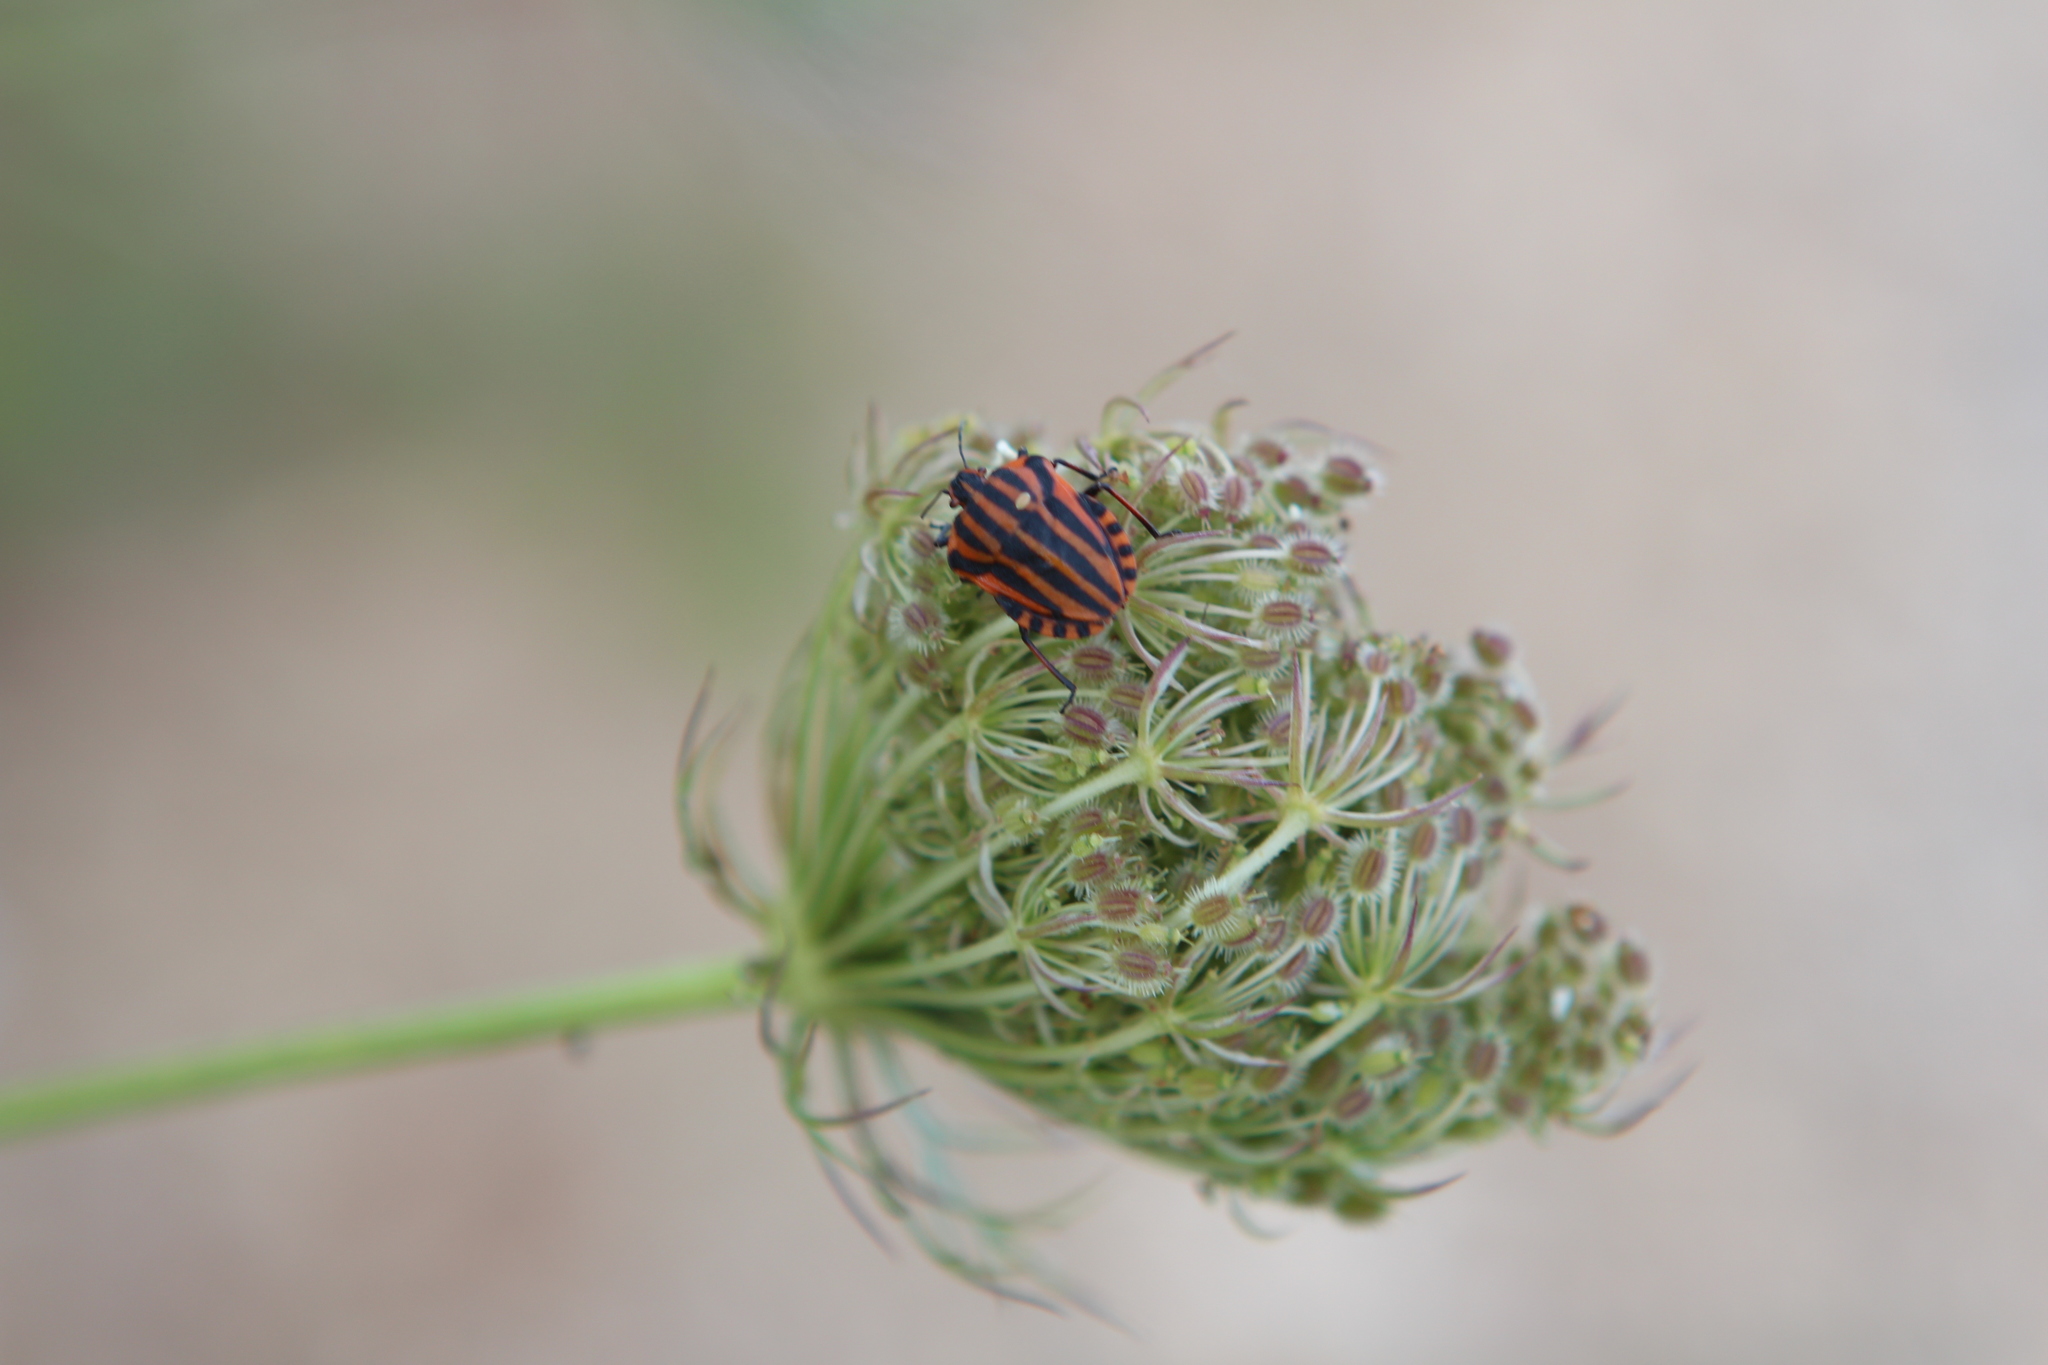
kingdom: Animalia
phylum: Arthropoda
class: Insecta
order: Hemiptera
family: Pentatomidae
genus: Graphosoma
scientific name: Graphosoma italicum
